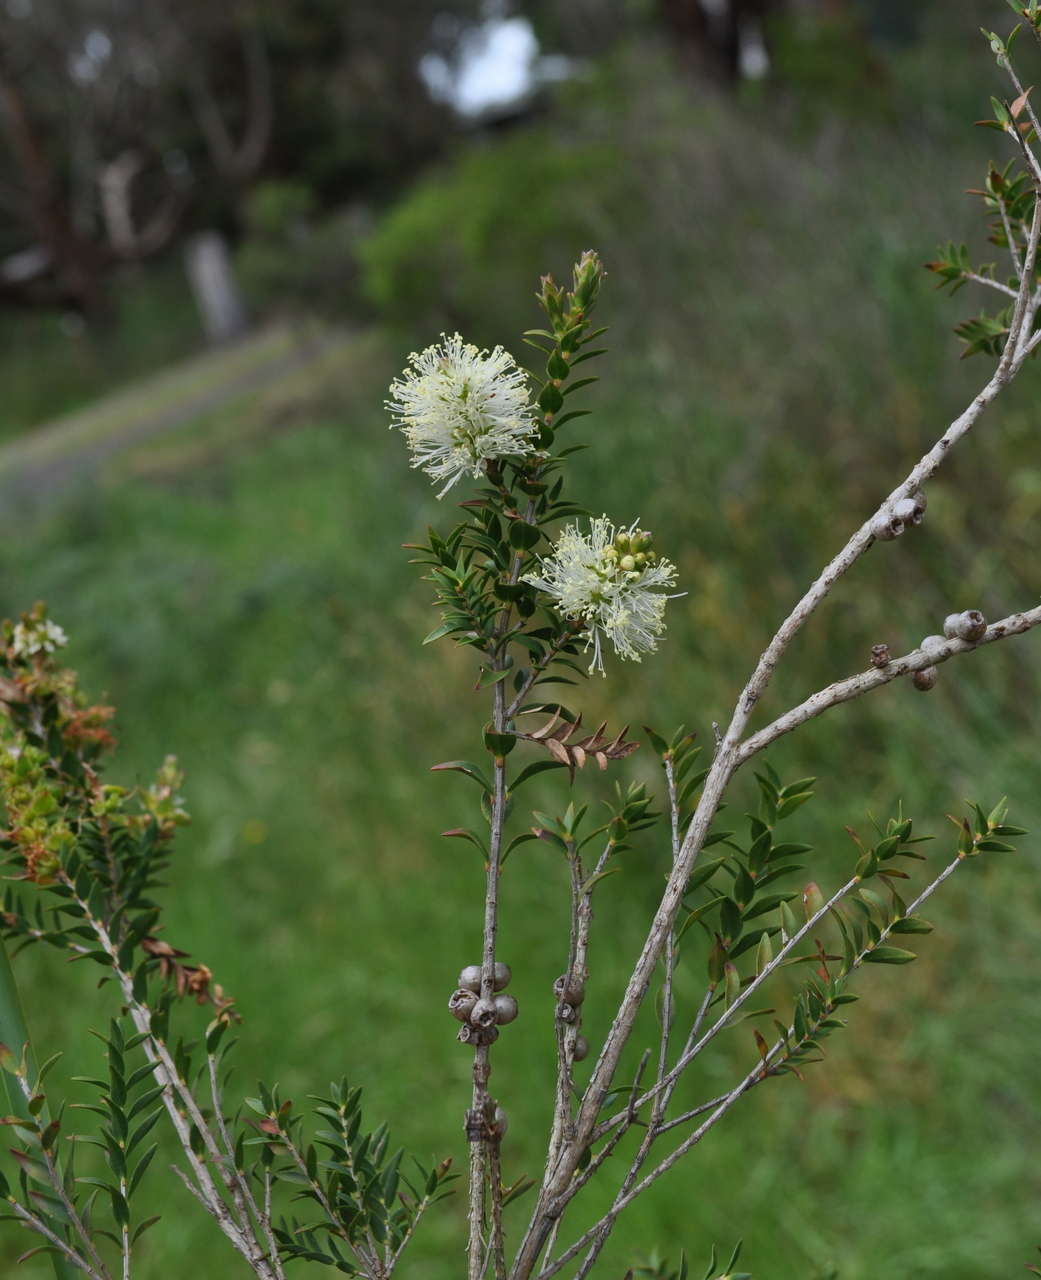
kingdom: Plantae
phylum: Tracheophyta
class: Magnoliopsida
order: Myrtales
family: Myrtaceae
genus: Melaleuca
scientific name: Melaleuca squarrosa
